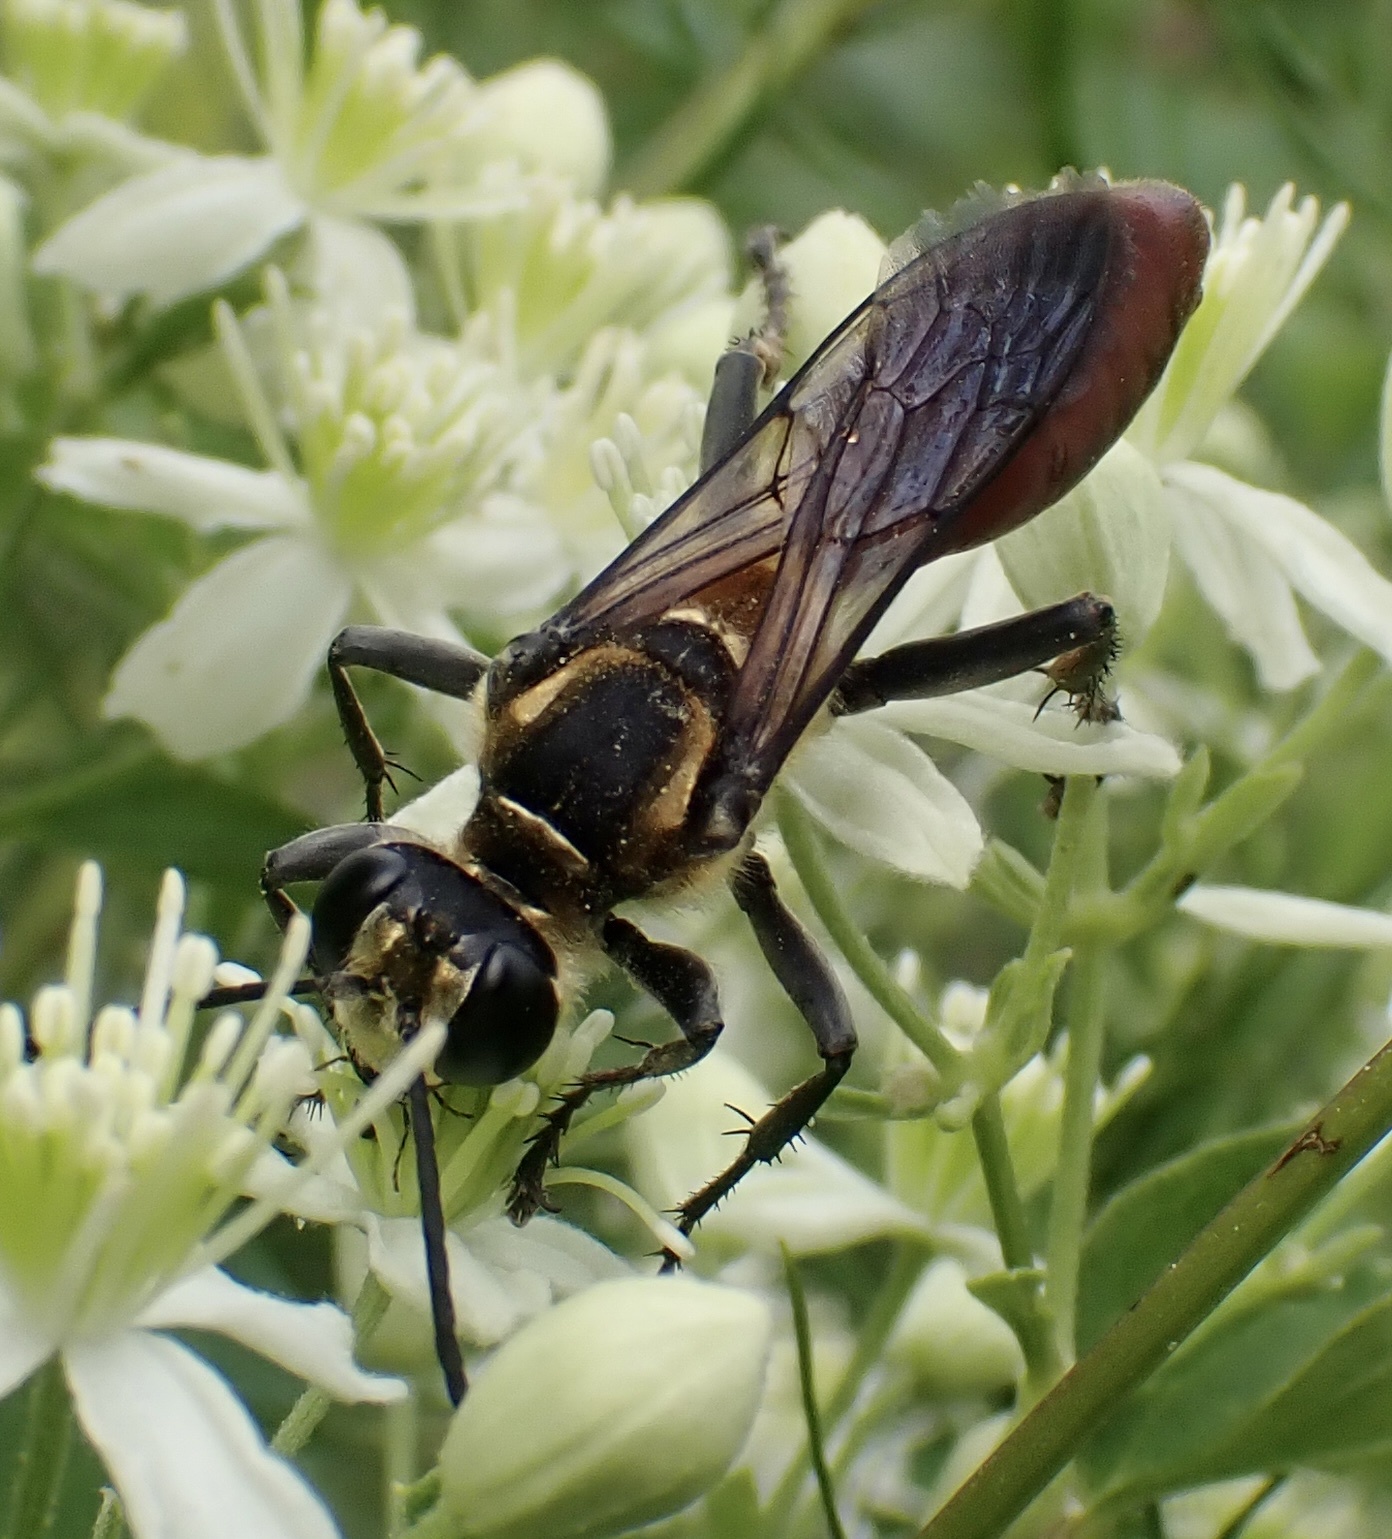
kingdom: Animalia
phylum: Arthropoda
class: Insecta
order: Hymenoptera
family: Sphecidae
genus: Sphex
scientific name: Sphex habenus
